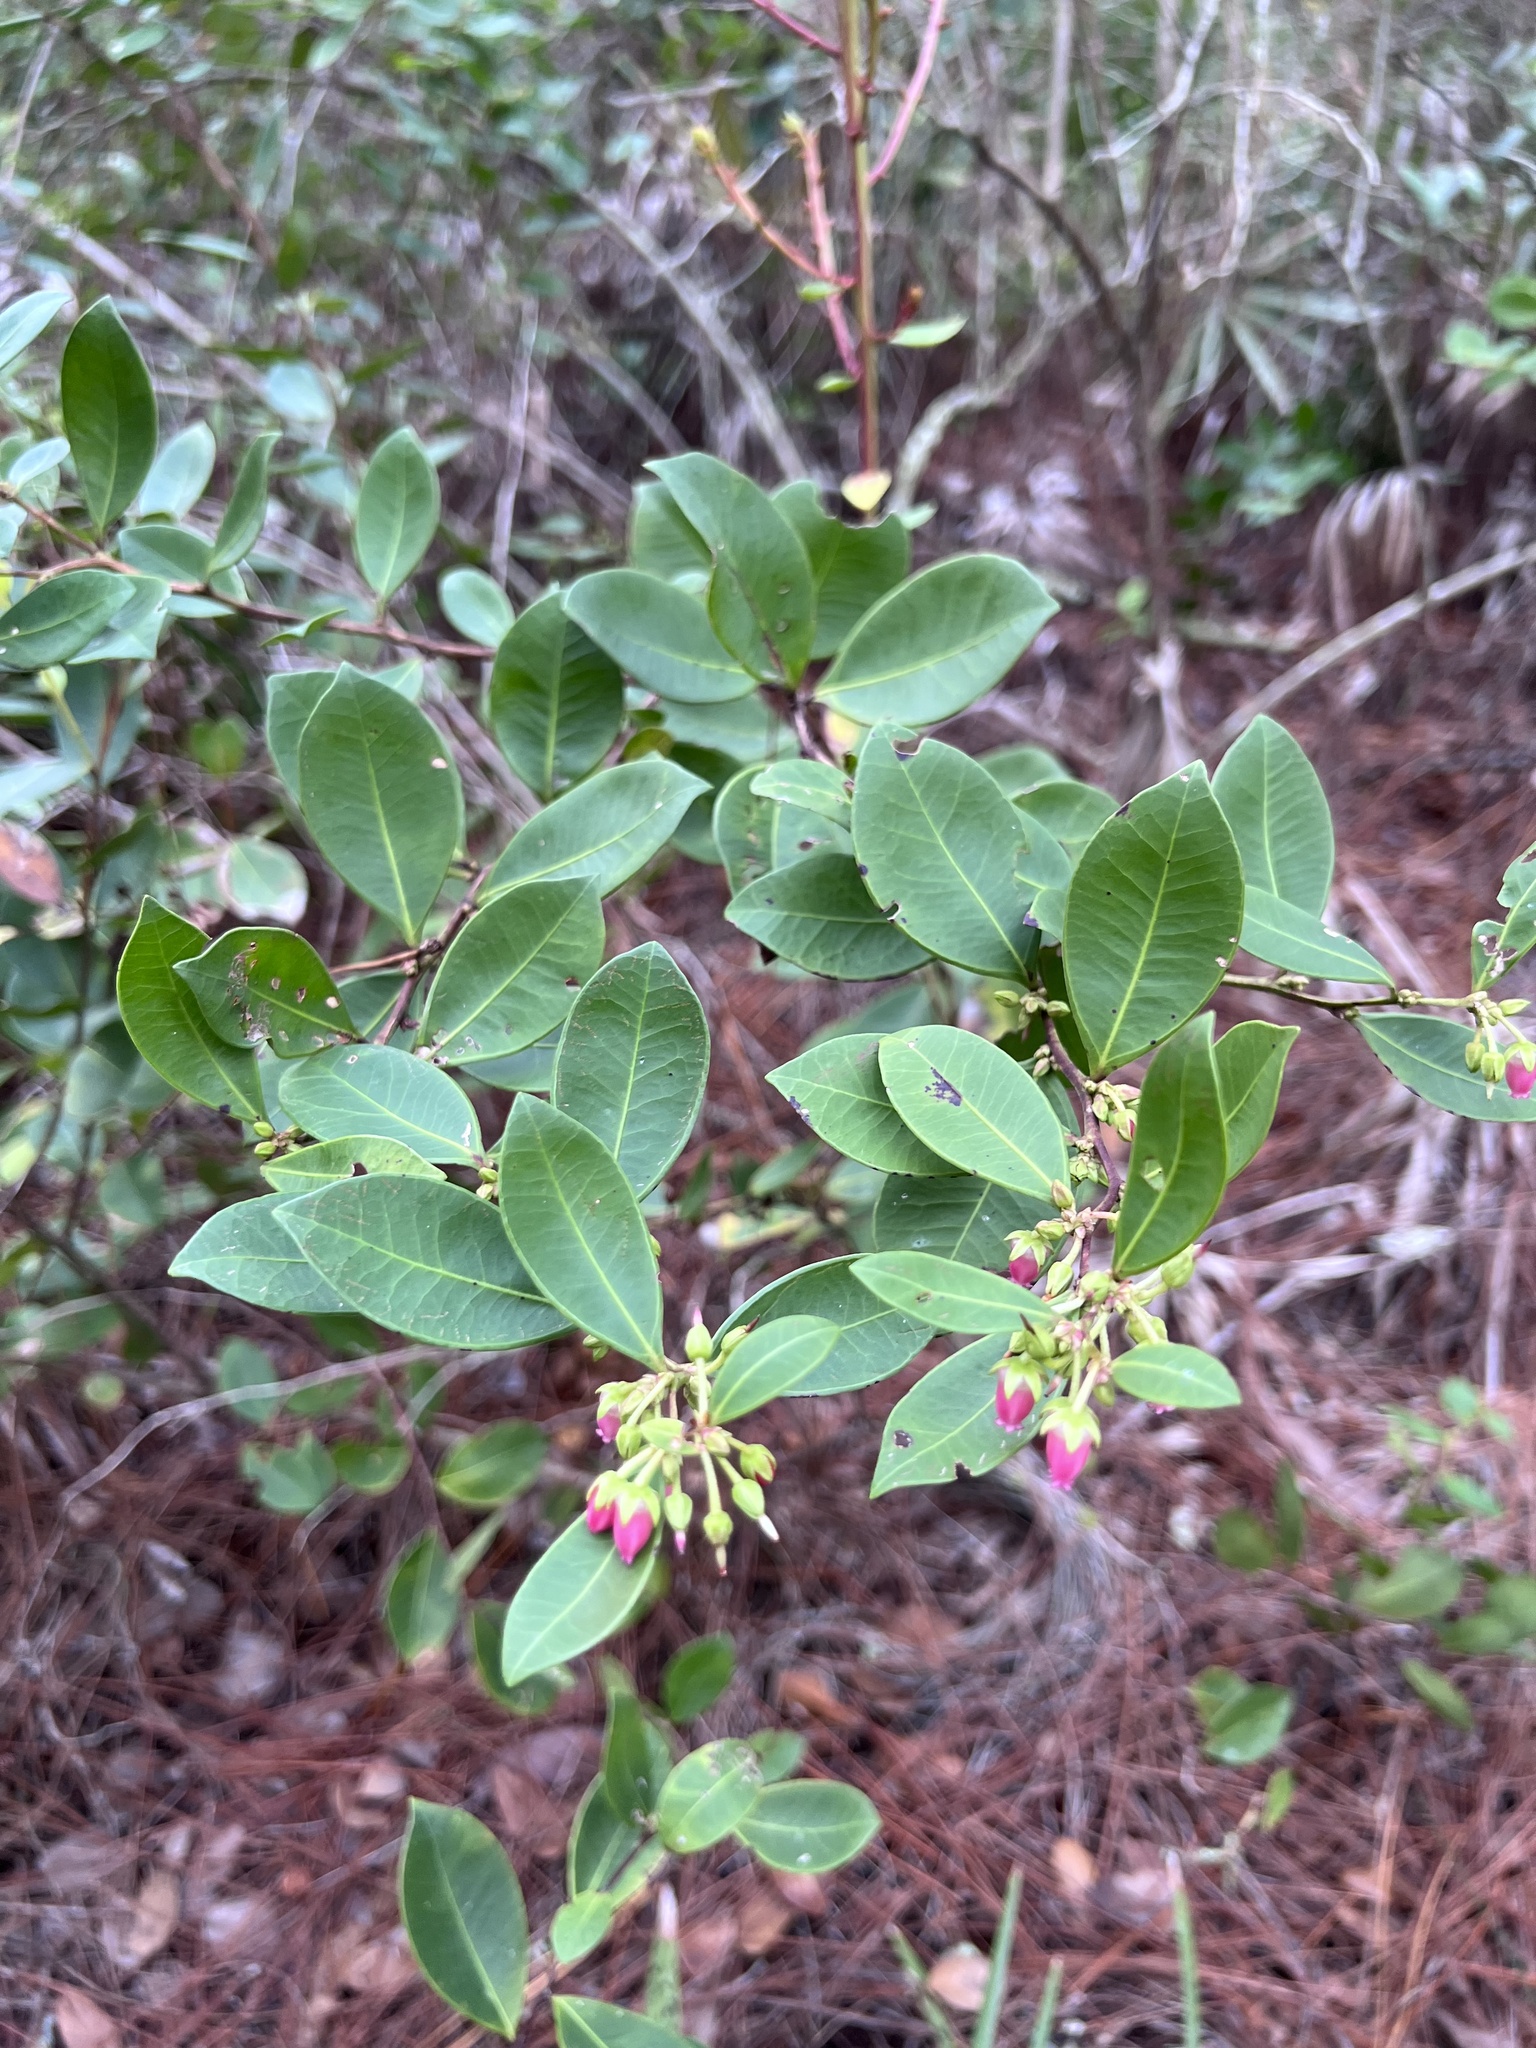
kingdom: Plantae
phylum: Tracheophyta
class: Magnoliopsida
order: Ericales
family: Ericaceae
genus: Lyonia
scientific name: Lyonia lucida
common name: Fetterbush
